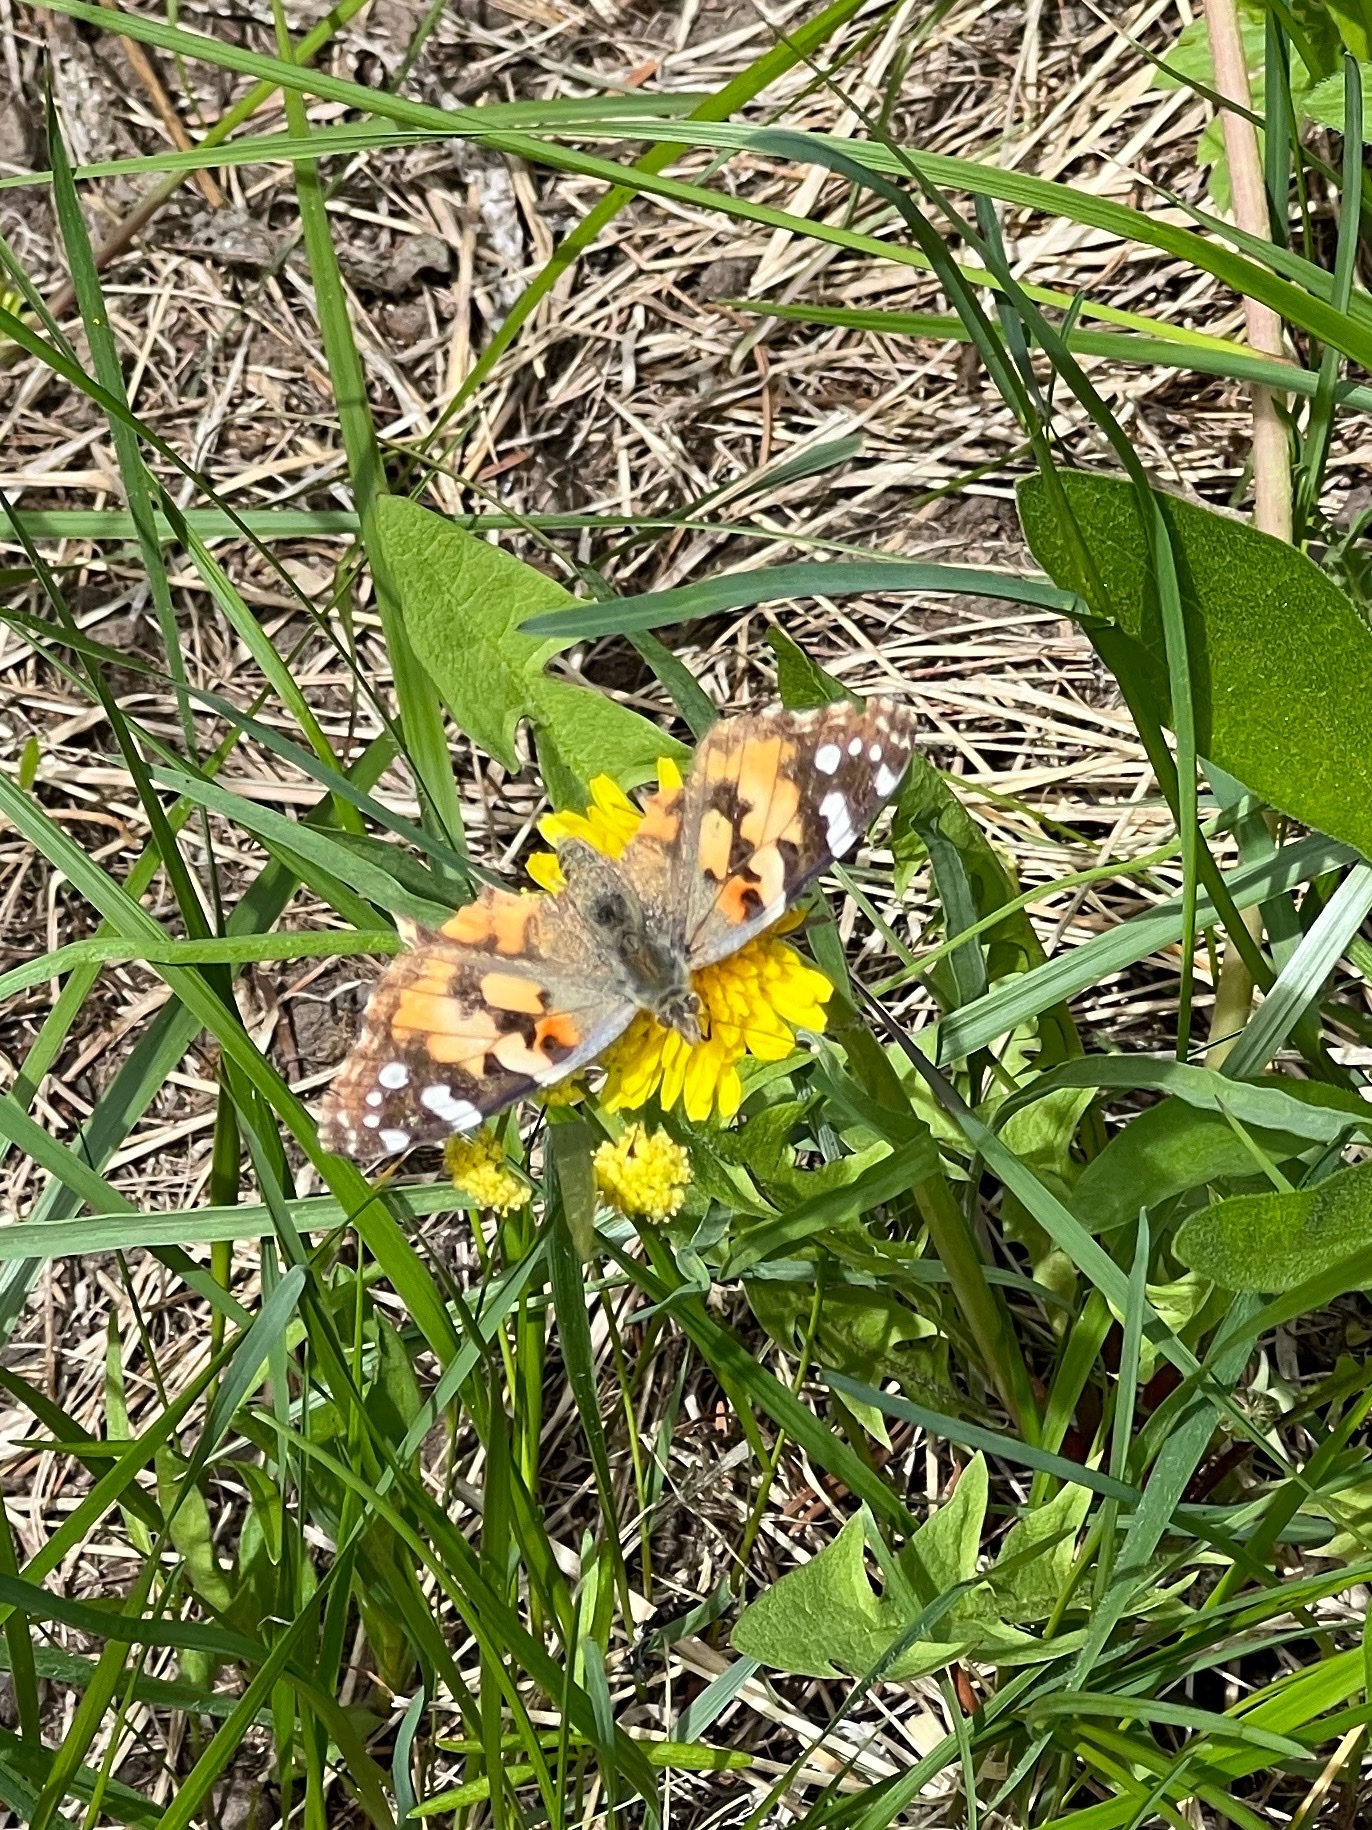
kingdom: Animalia
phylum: Arthropoda
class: Insecta
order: Lepidoptera
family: Nymphalidae
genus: Vanessa
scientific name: Vanessa cardui
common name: Painted lady
